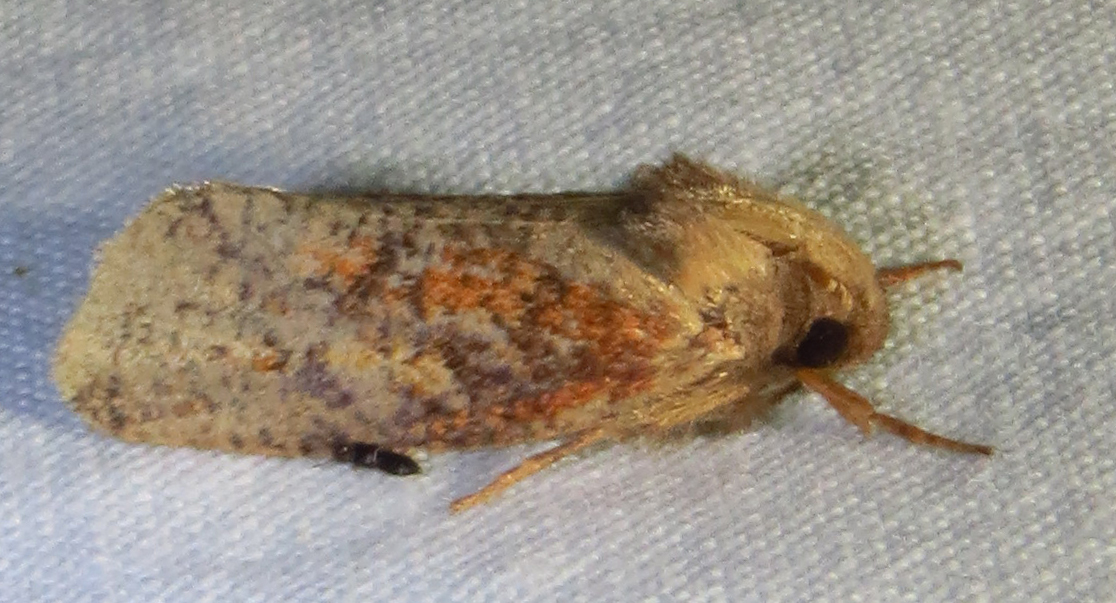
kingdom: Animalia
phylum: Arthropoda
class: Insecta
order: Lepidoptera
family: Tineidae
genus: Acrolophus
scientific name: Acrolophus plumifrontella
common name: Eastern grass tubeworm moth
